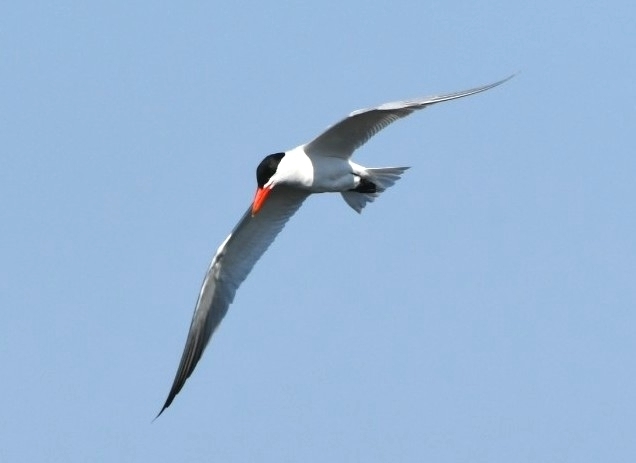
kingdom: Animalia
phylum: Chordata
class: Aves
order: Charadriiformes
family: Laridae
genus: Hydroprogne
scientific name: Hydroprogne caspia
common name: Caspian tern
